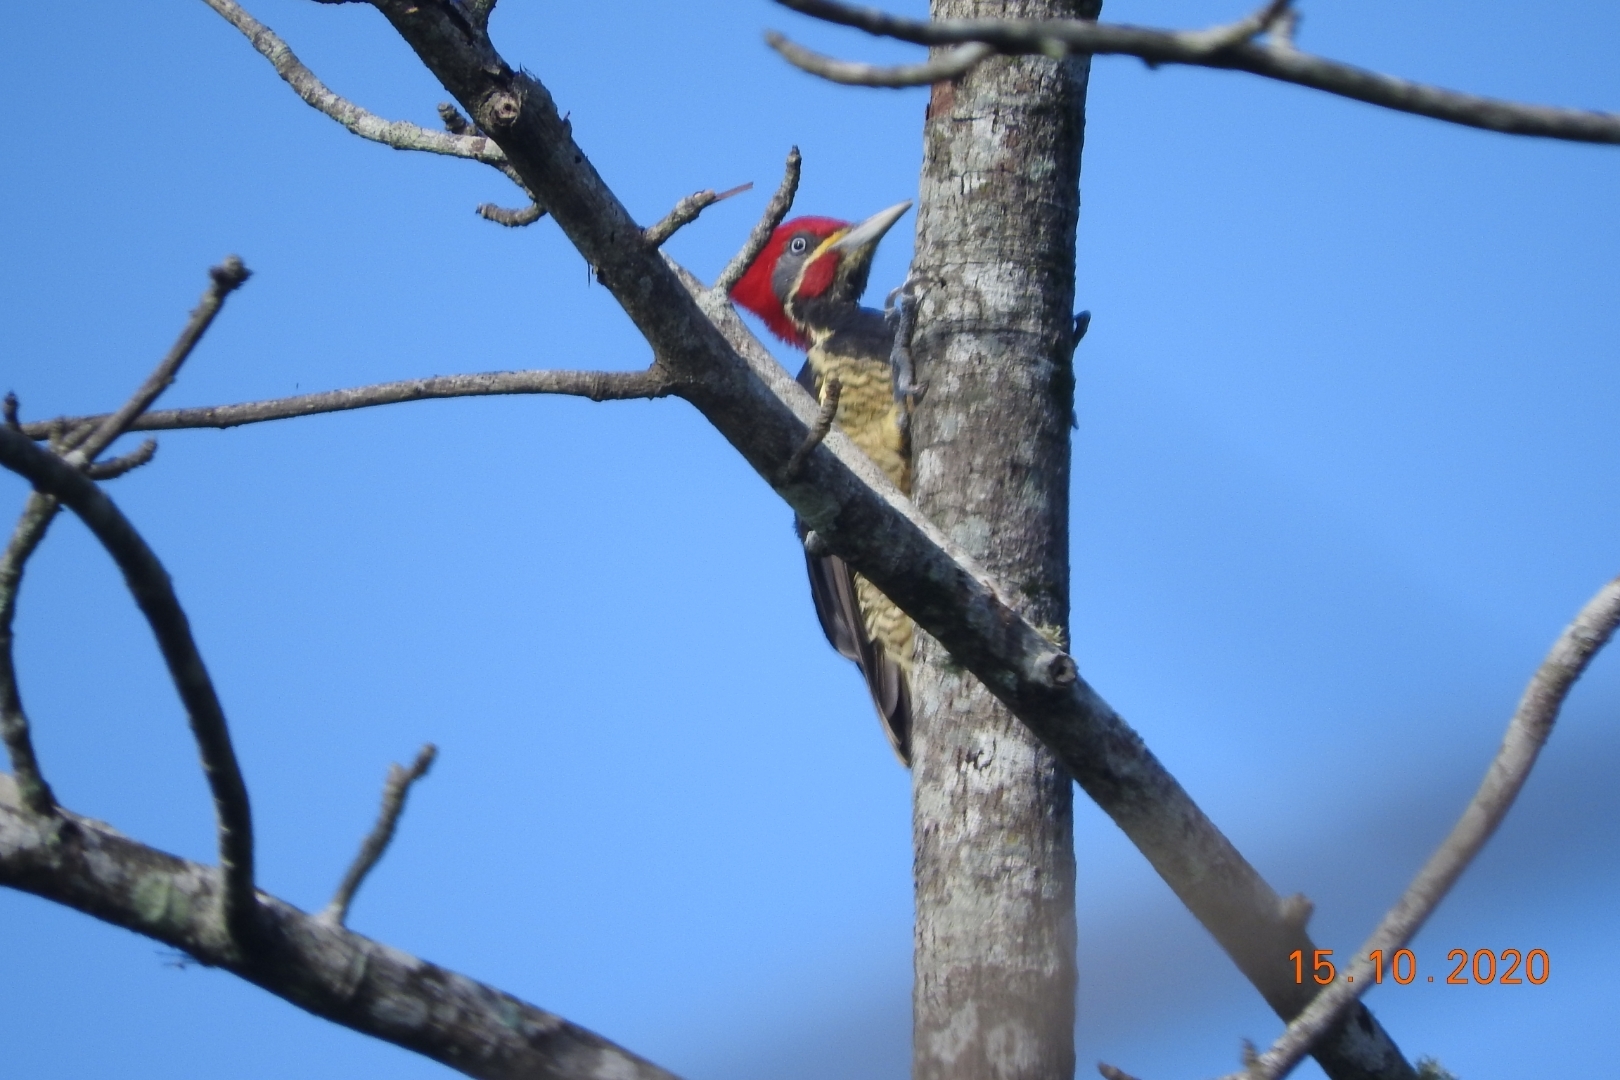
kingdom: Animalia
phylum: Chordata
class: Aves
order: Piciformes
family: Picidae
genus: Dryocopus
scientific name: Dryocopus lineatus
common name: Lineated woodpecker
